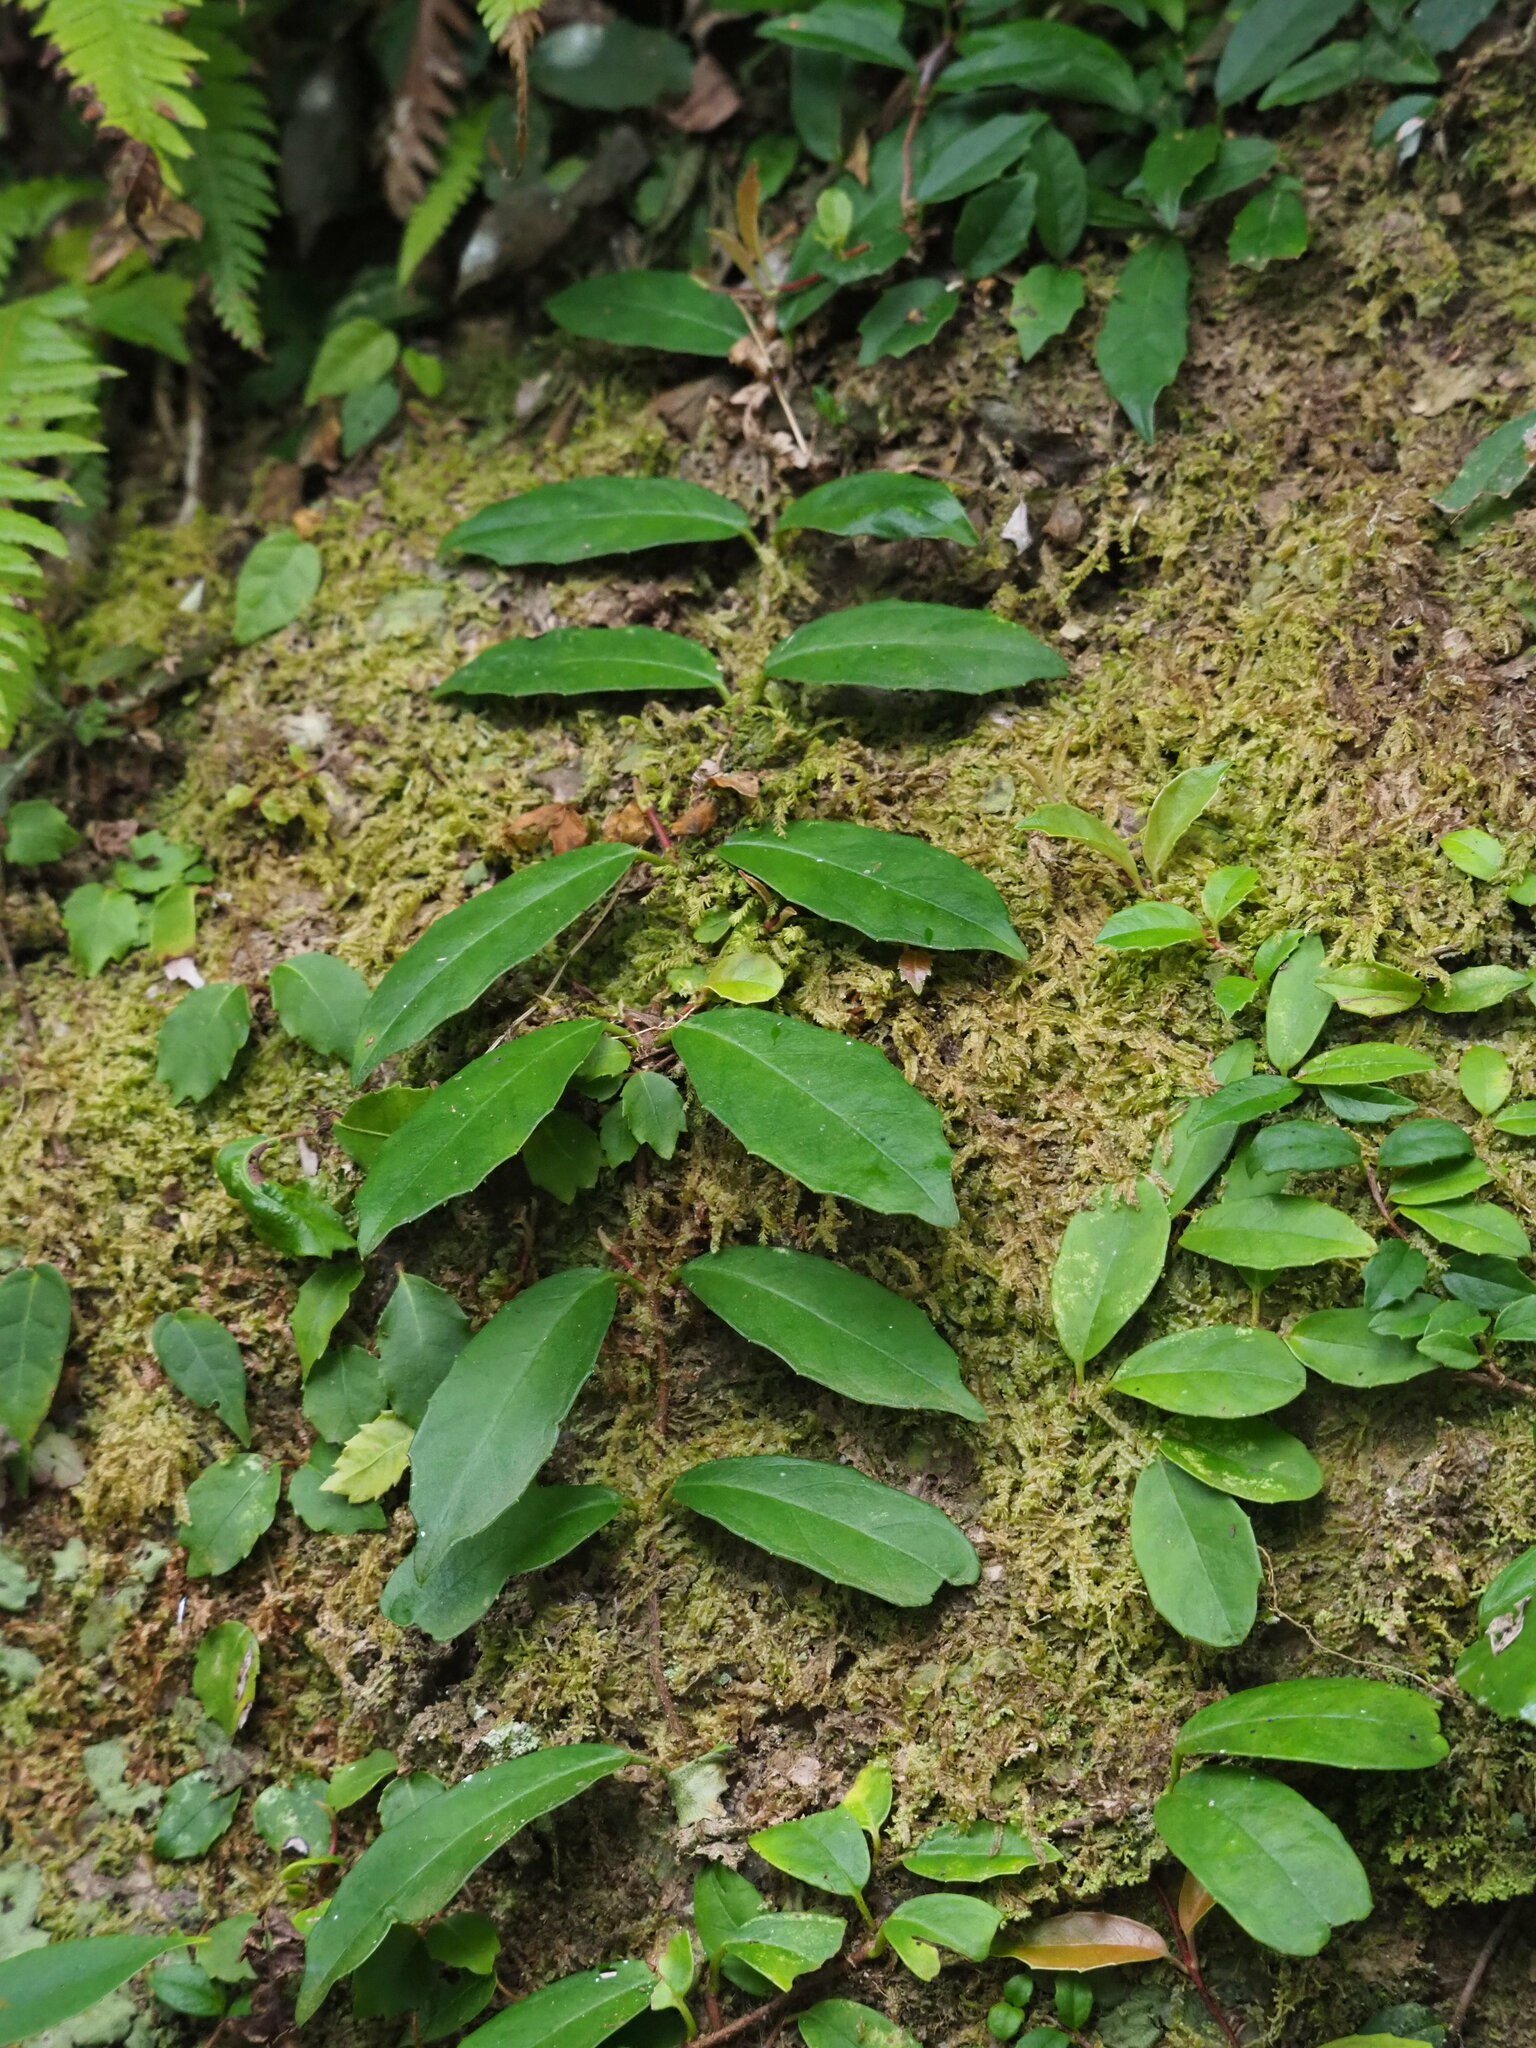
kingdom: Plantae
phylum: Tracheophyta
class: Magnoliopsida
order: Cornales
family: Hydrangeaceae
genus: Hydrangea
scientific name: Hydrangea viburnoides
